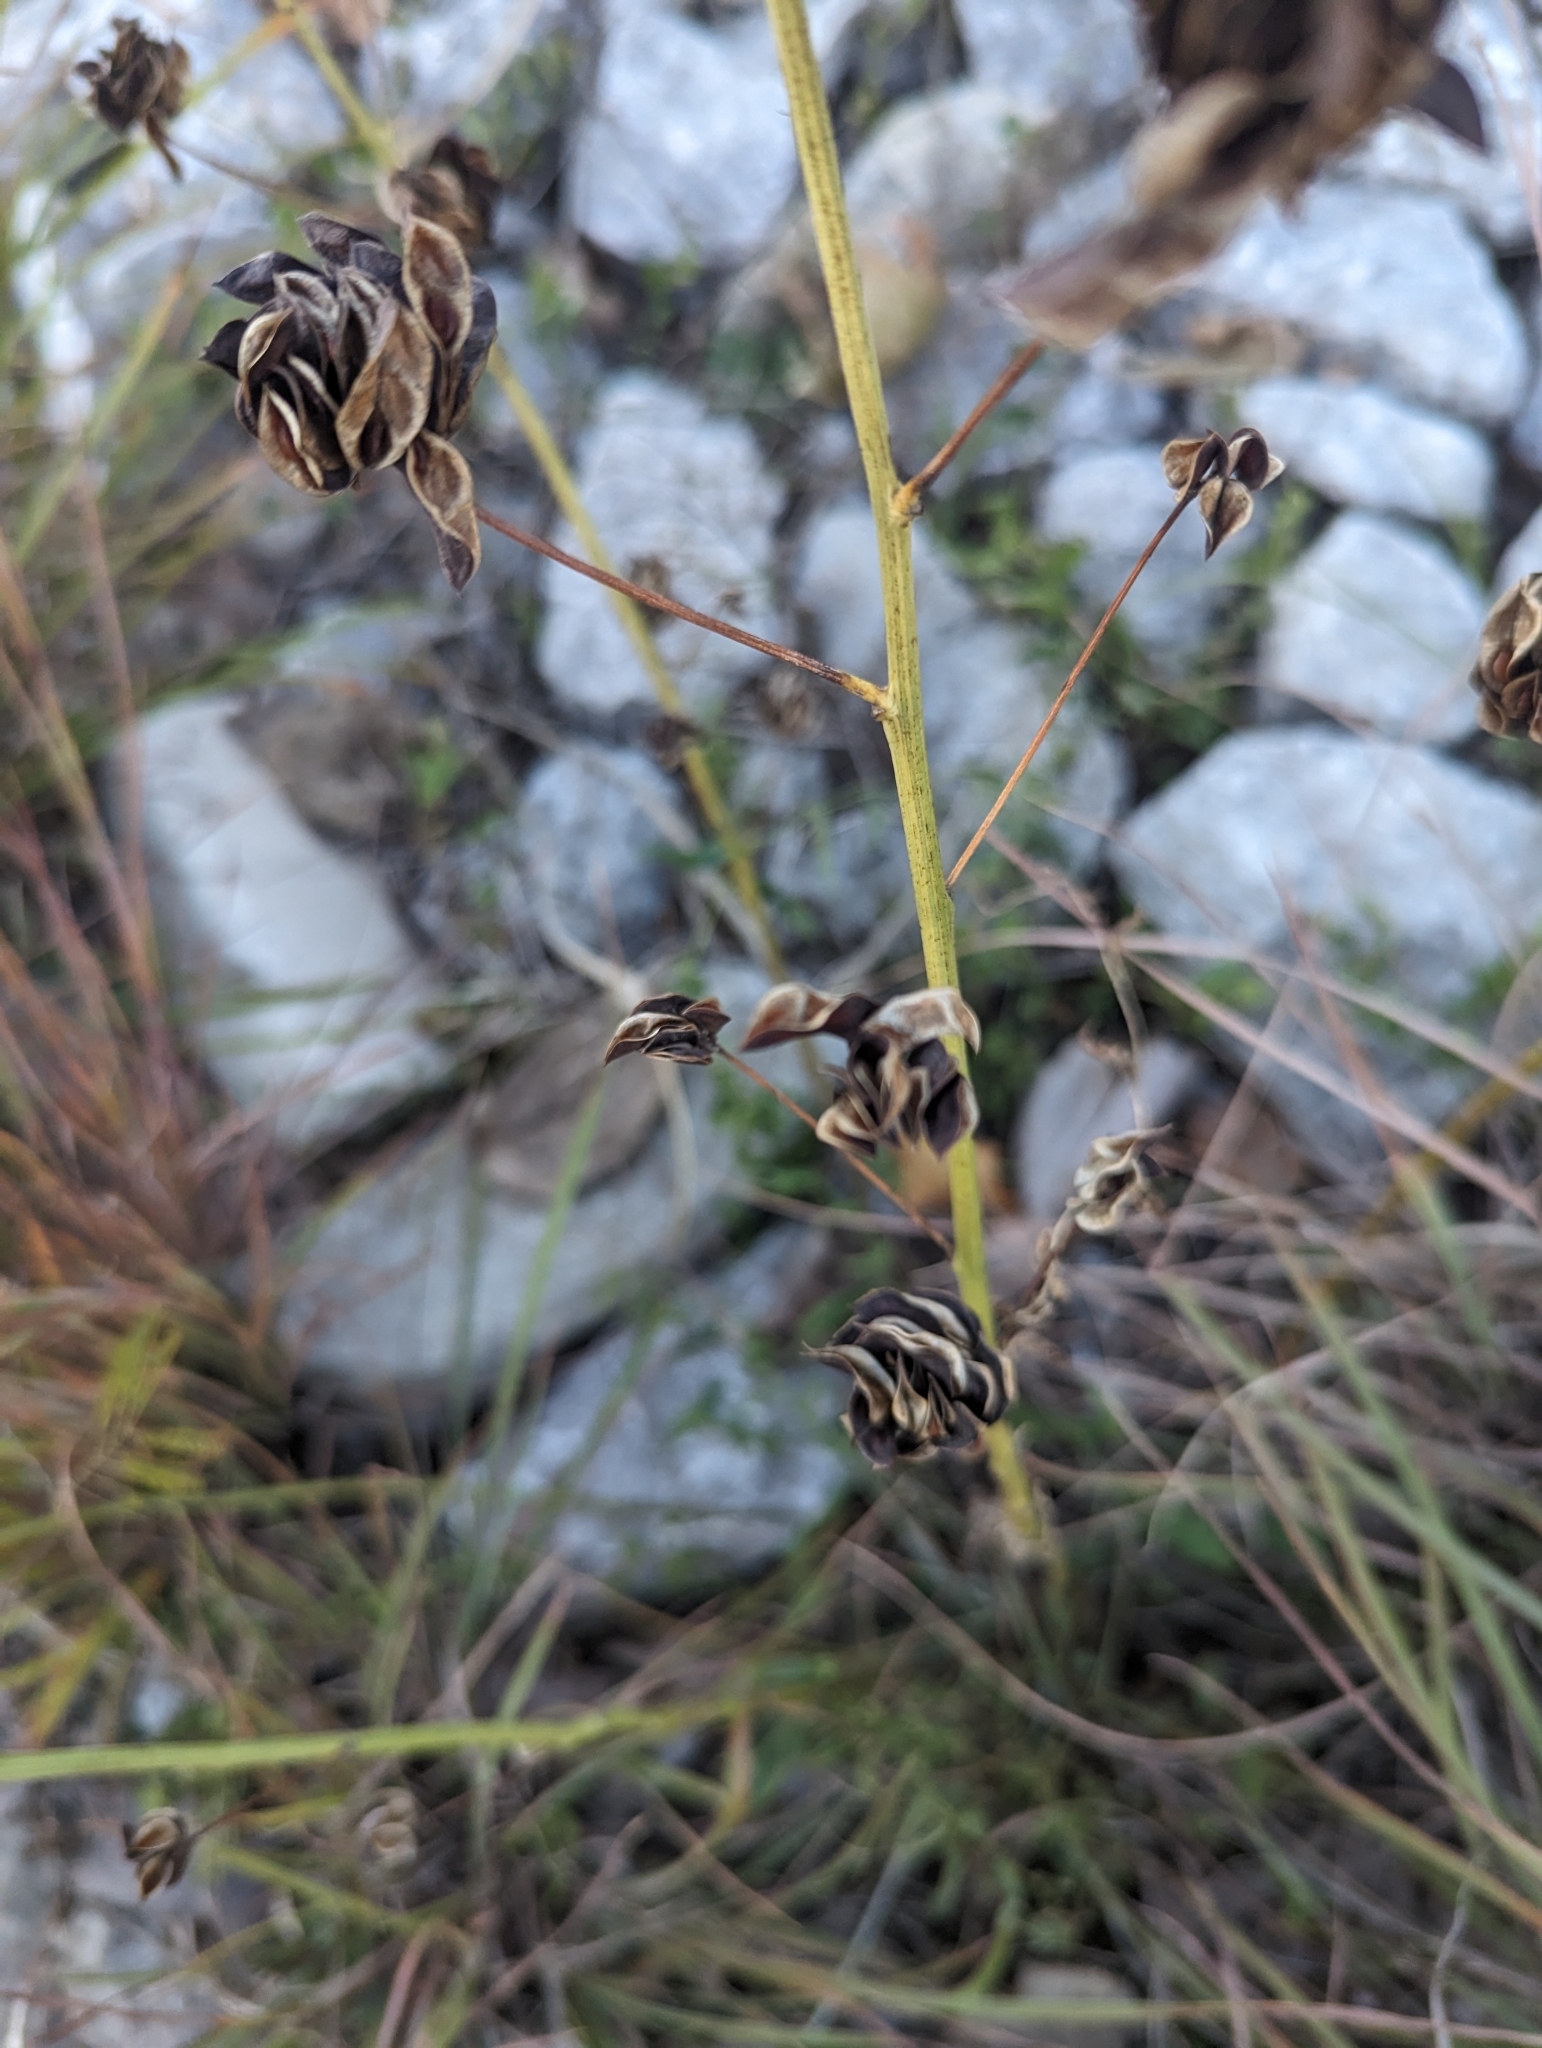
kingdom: Plantae
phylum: Tracheophyta
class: Magnoliopsida
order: Fabales
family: Fabaceae
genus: Desmanthus
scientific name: Desmanthus illinoensis
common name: Illinois bundle-flower
